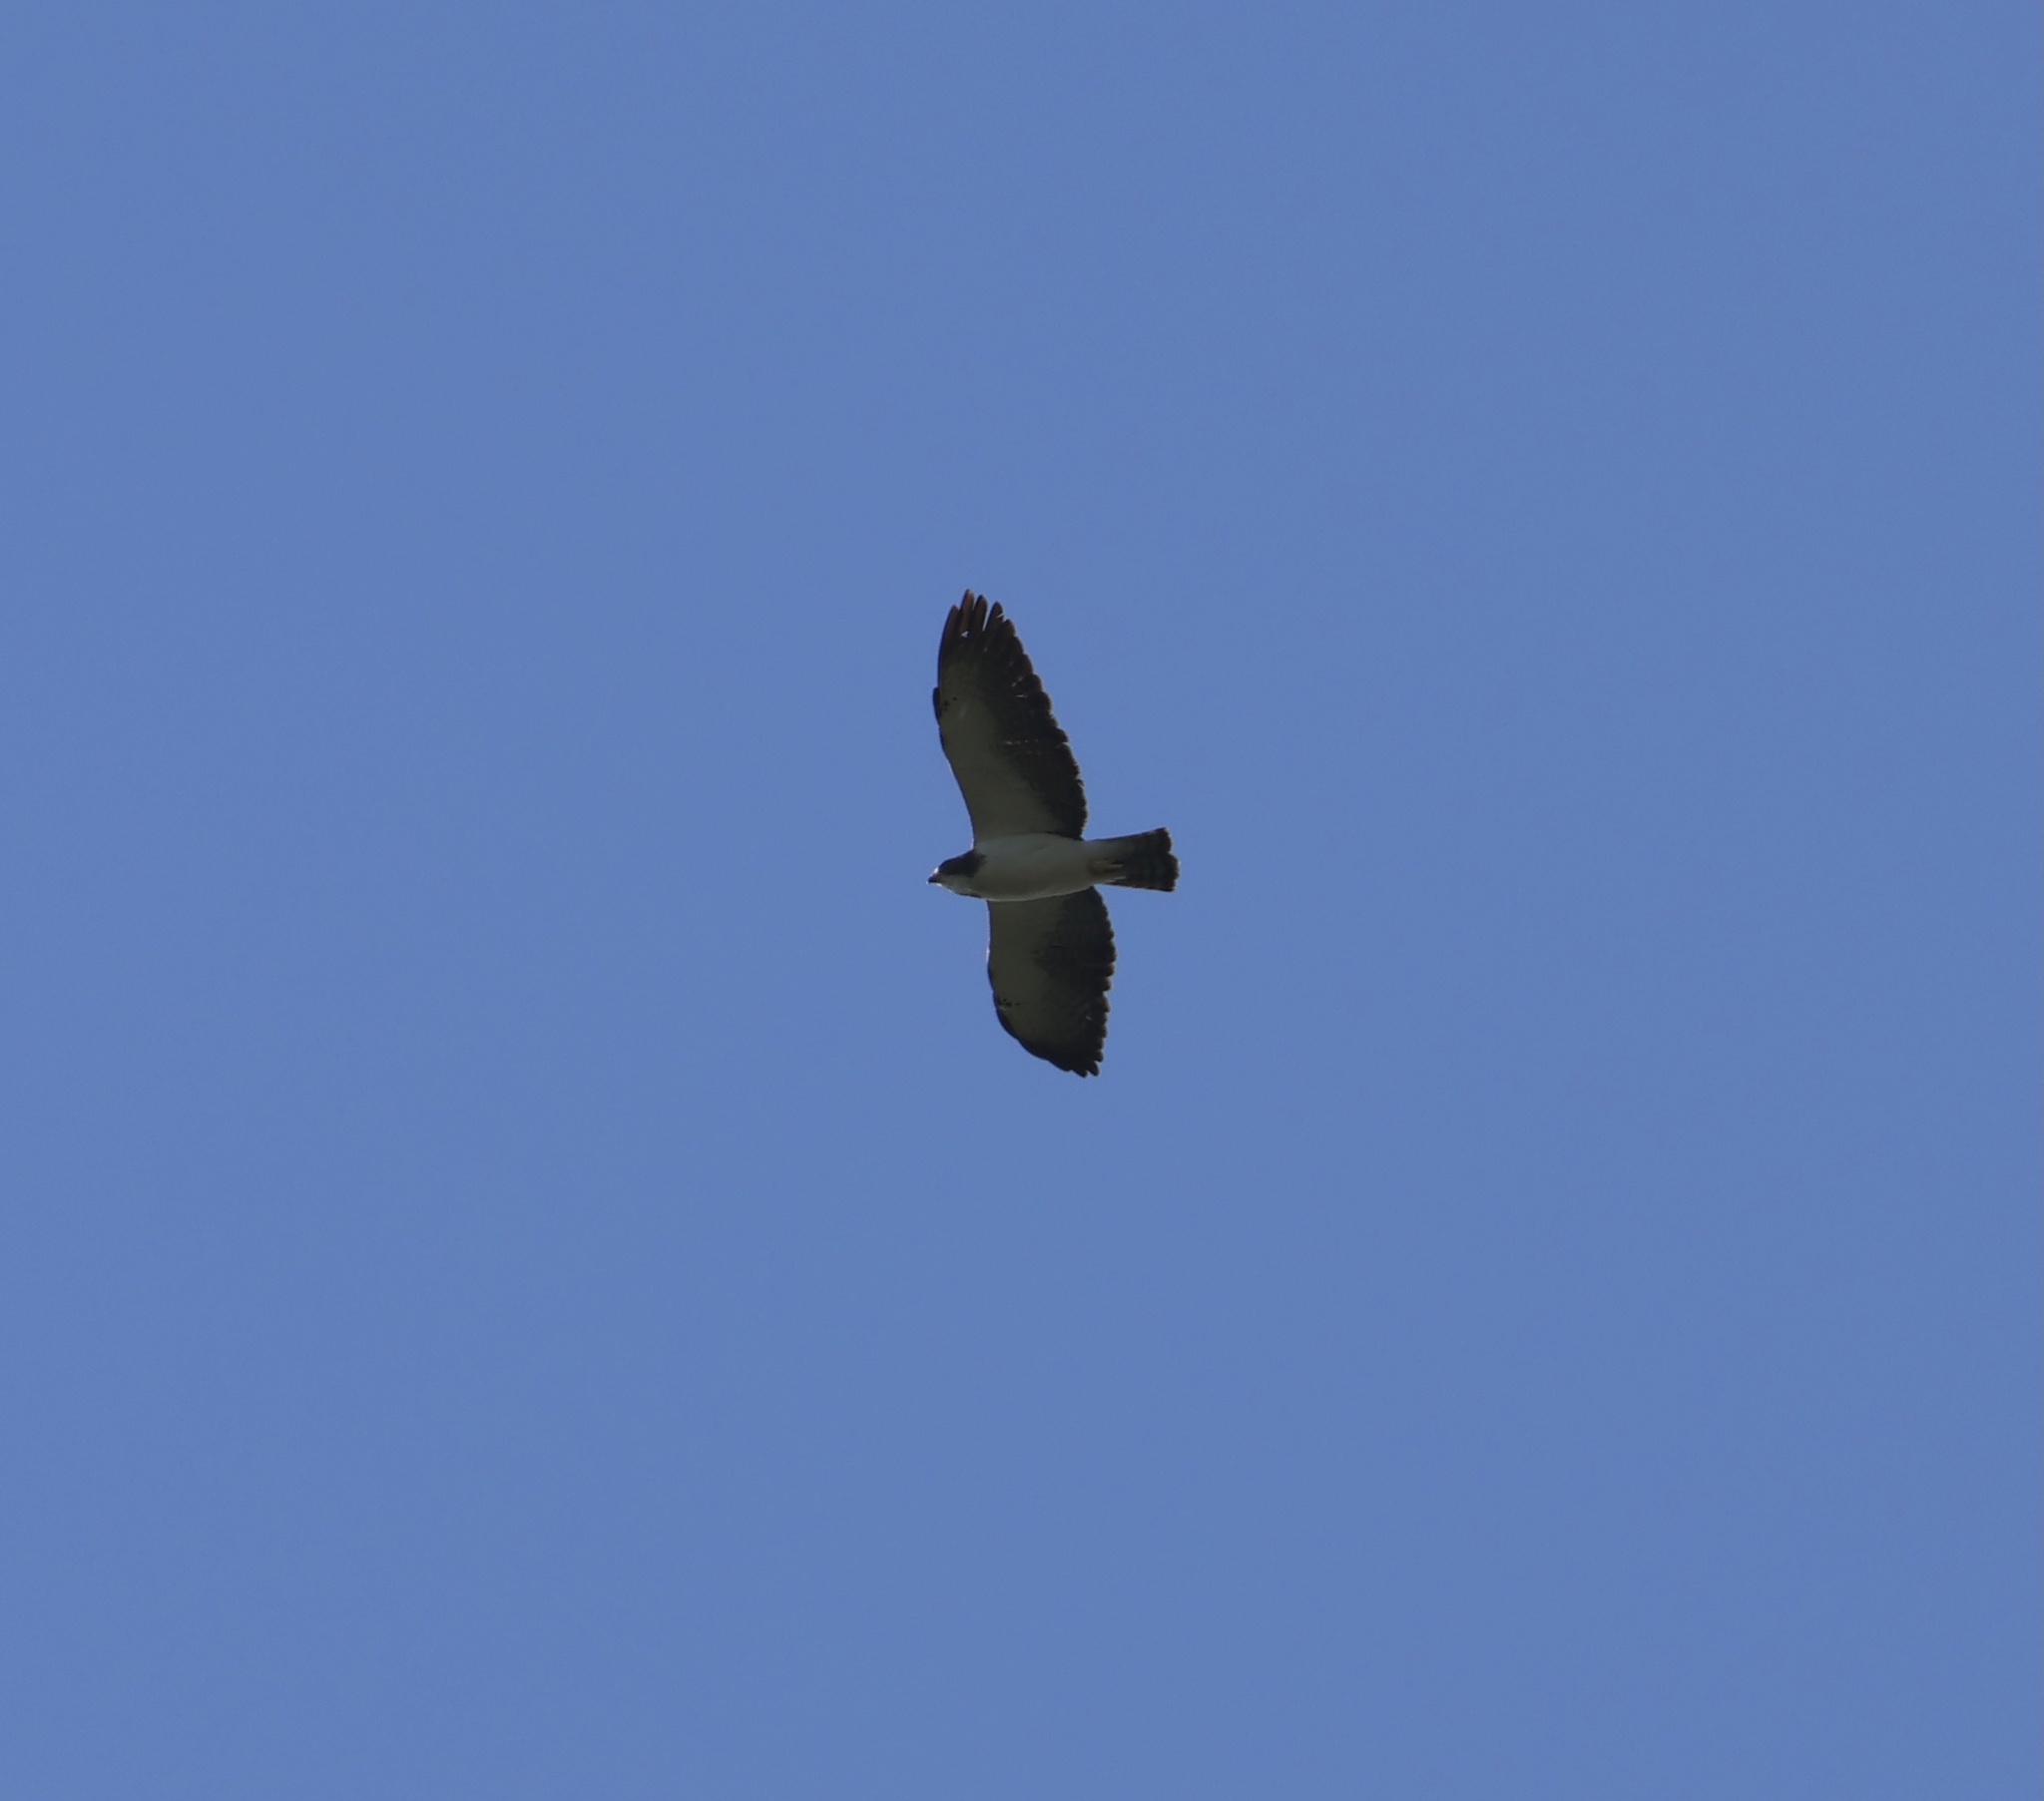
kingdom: Animalia
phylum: Chordata
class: Aves
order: Accipitriformes
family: Accipitridae
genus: Buteo
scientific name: Buteo brachyurus
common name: Short-tailed hawk
